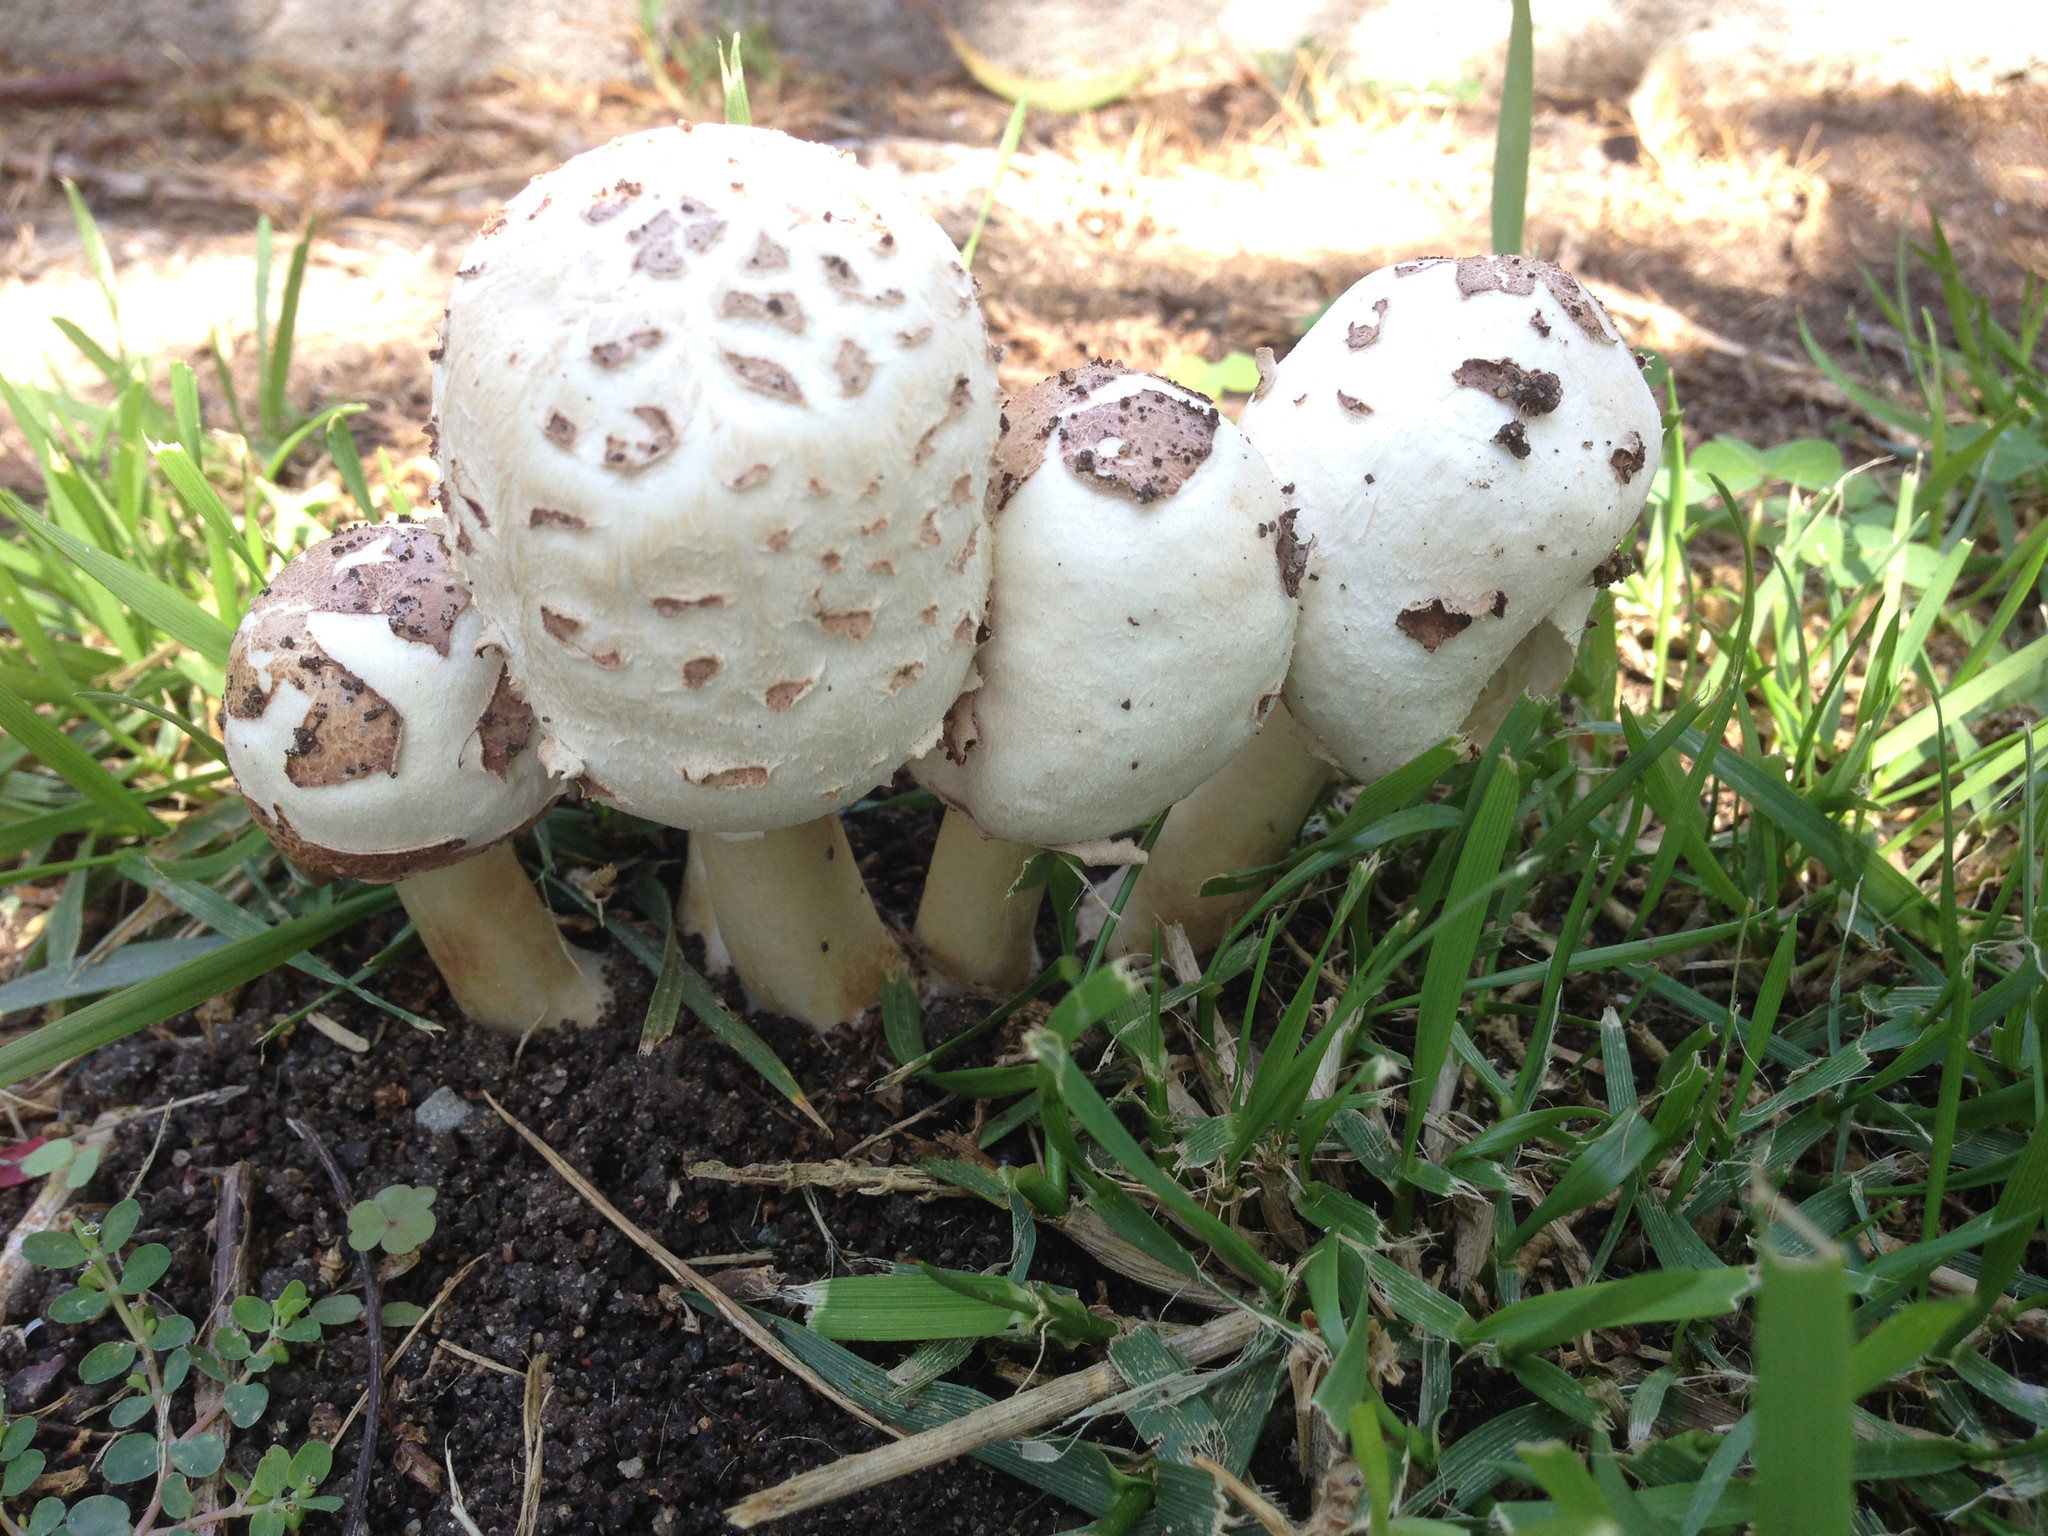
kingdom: Fungi
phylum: Basidiomycota
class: Agaricomycetes
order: Agaricales
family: Agaricaceae
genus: Chlorophyllum
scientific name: Chlorophyllum molybdites
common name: False parasol
